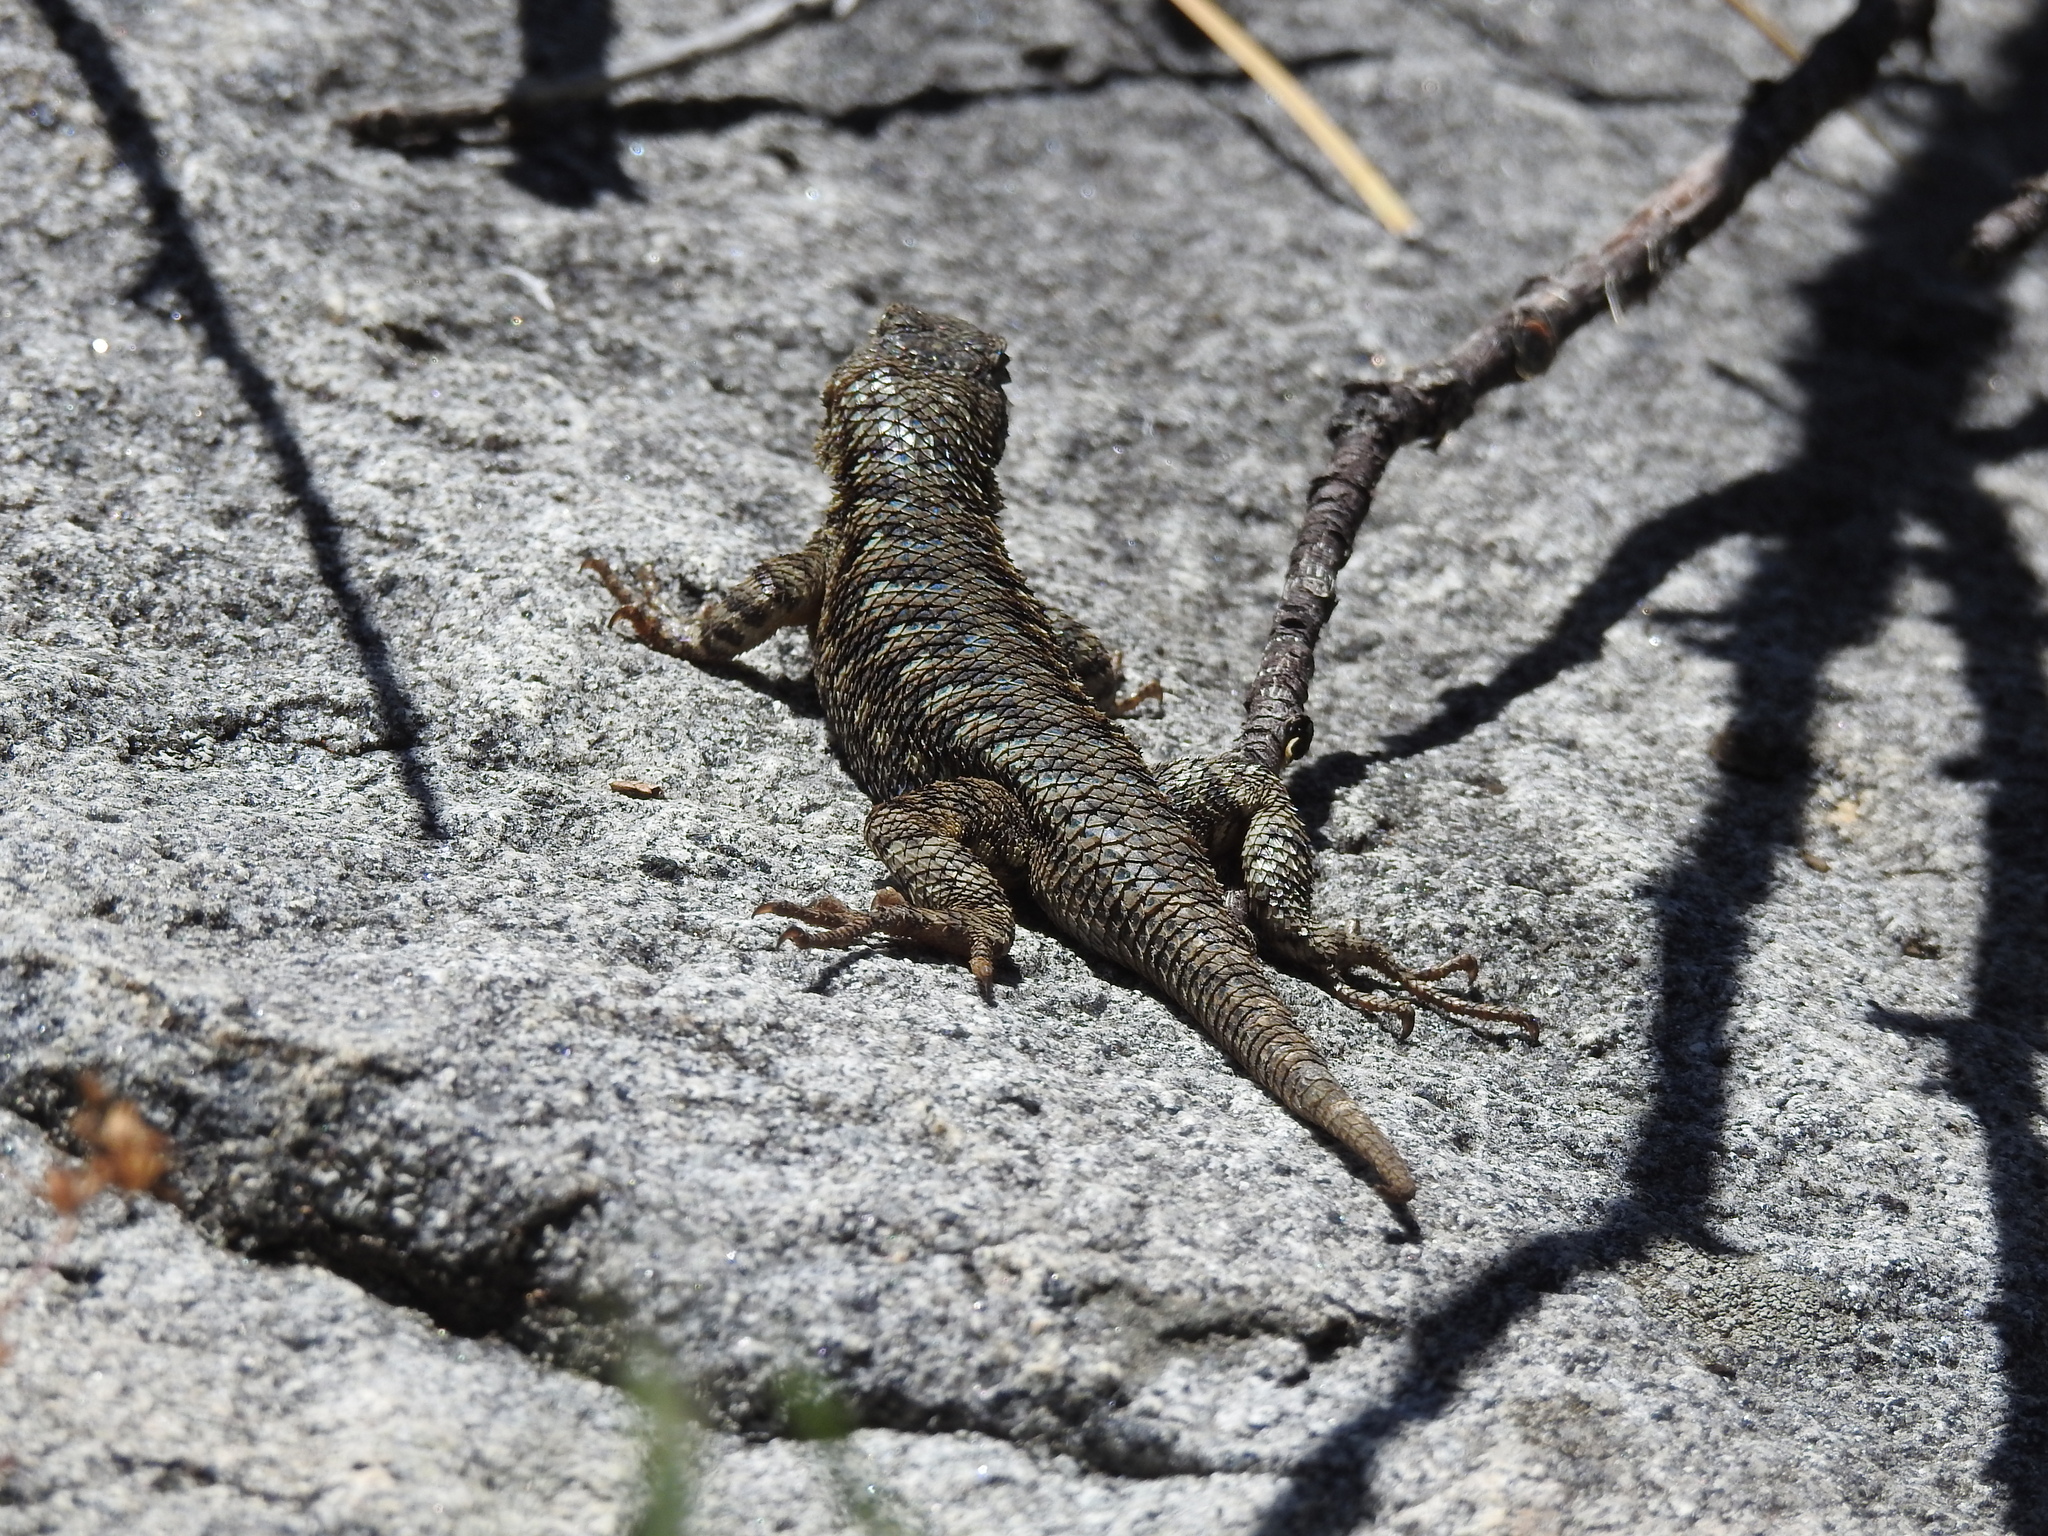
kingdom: Animalia
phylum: Chordata
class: Squamata
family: Phrynosomatidae
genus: Sceloporus
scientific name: Sceloporus occidentalis
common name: Western fence lizard
